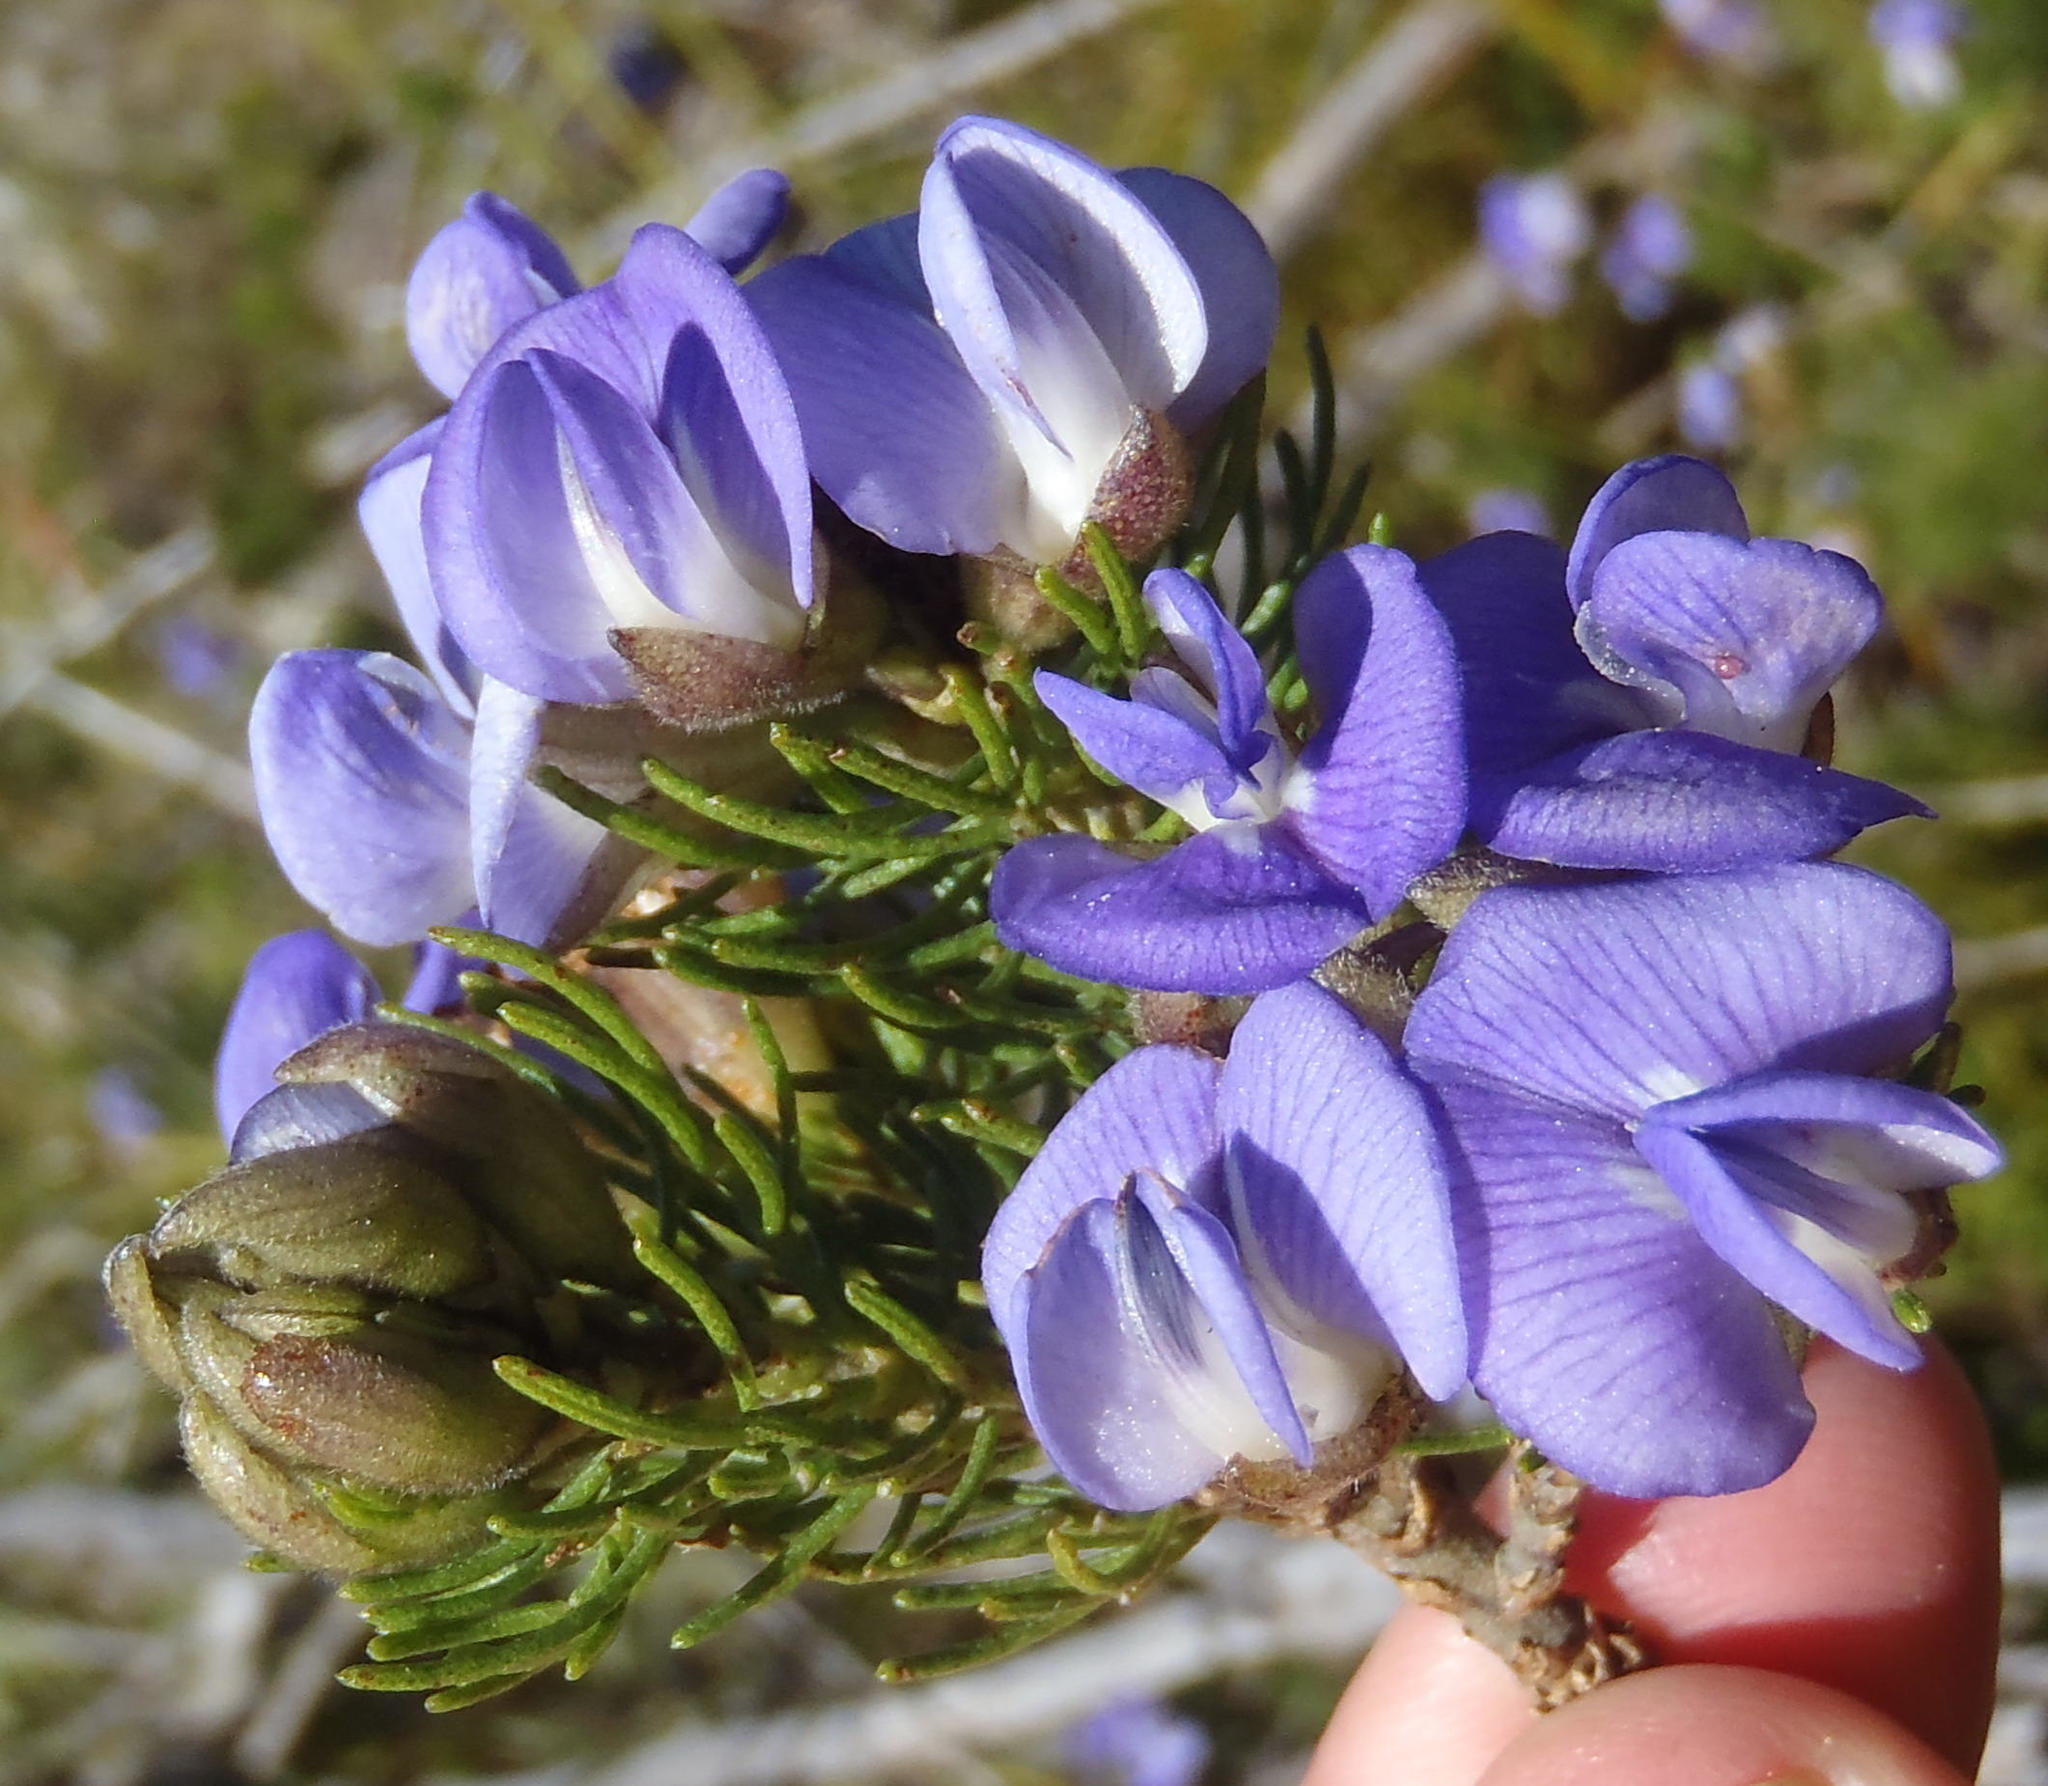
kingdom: Plantae
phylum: Tracheophyta
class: Magnoliopsida
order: Fabales
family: Fabaceae
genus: Psoralea
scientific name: Psoralea speciosa
